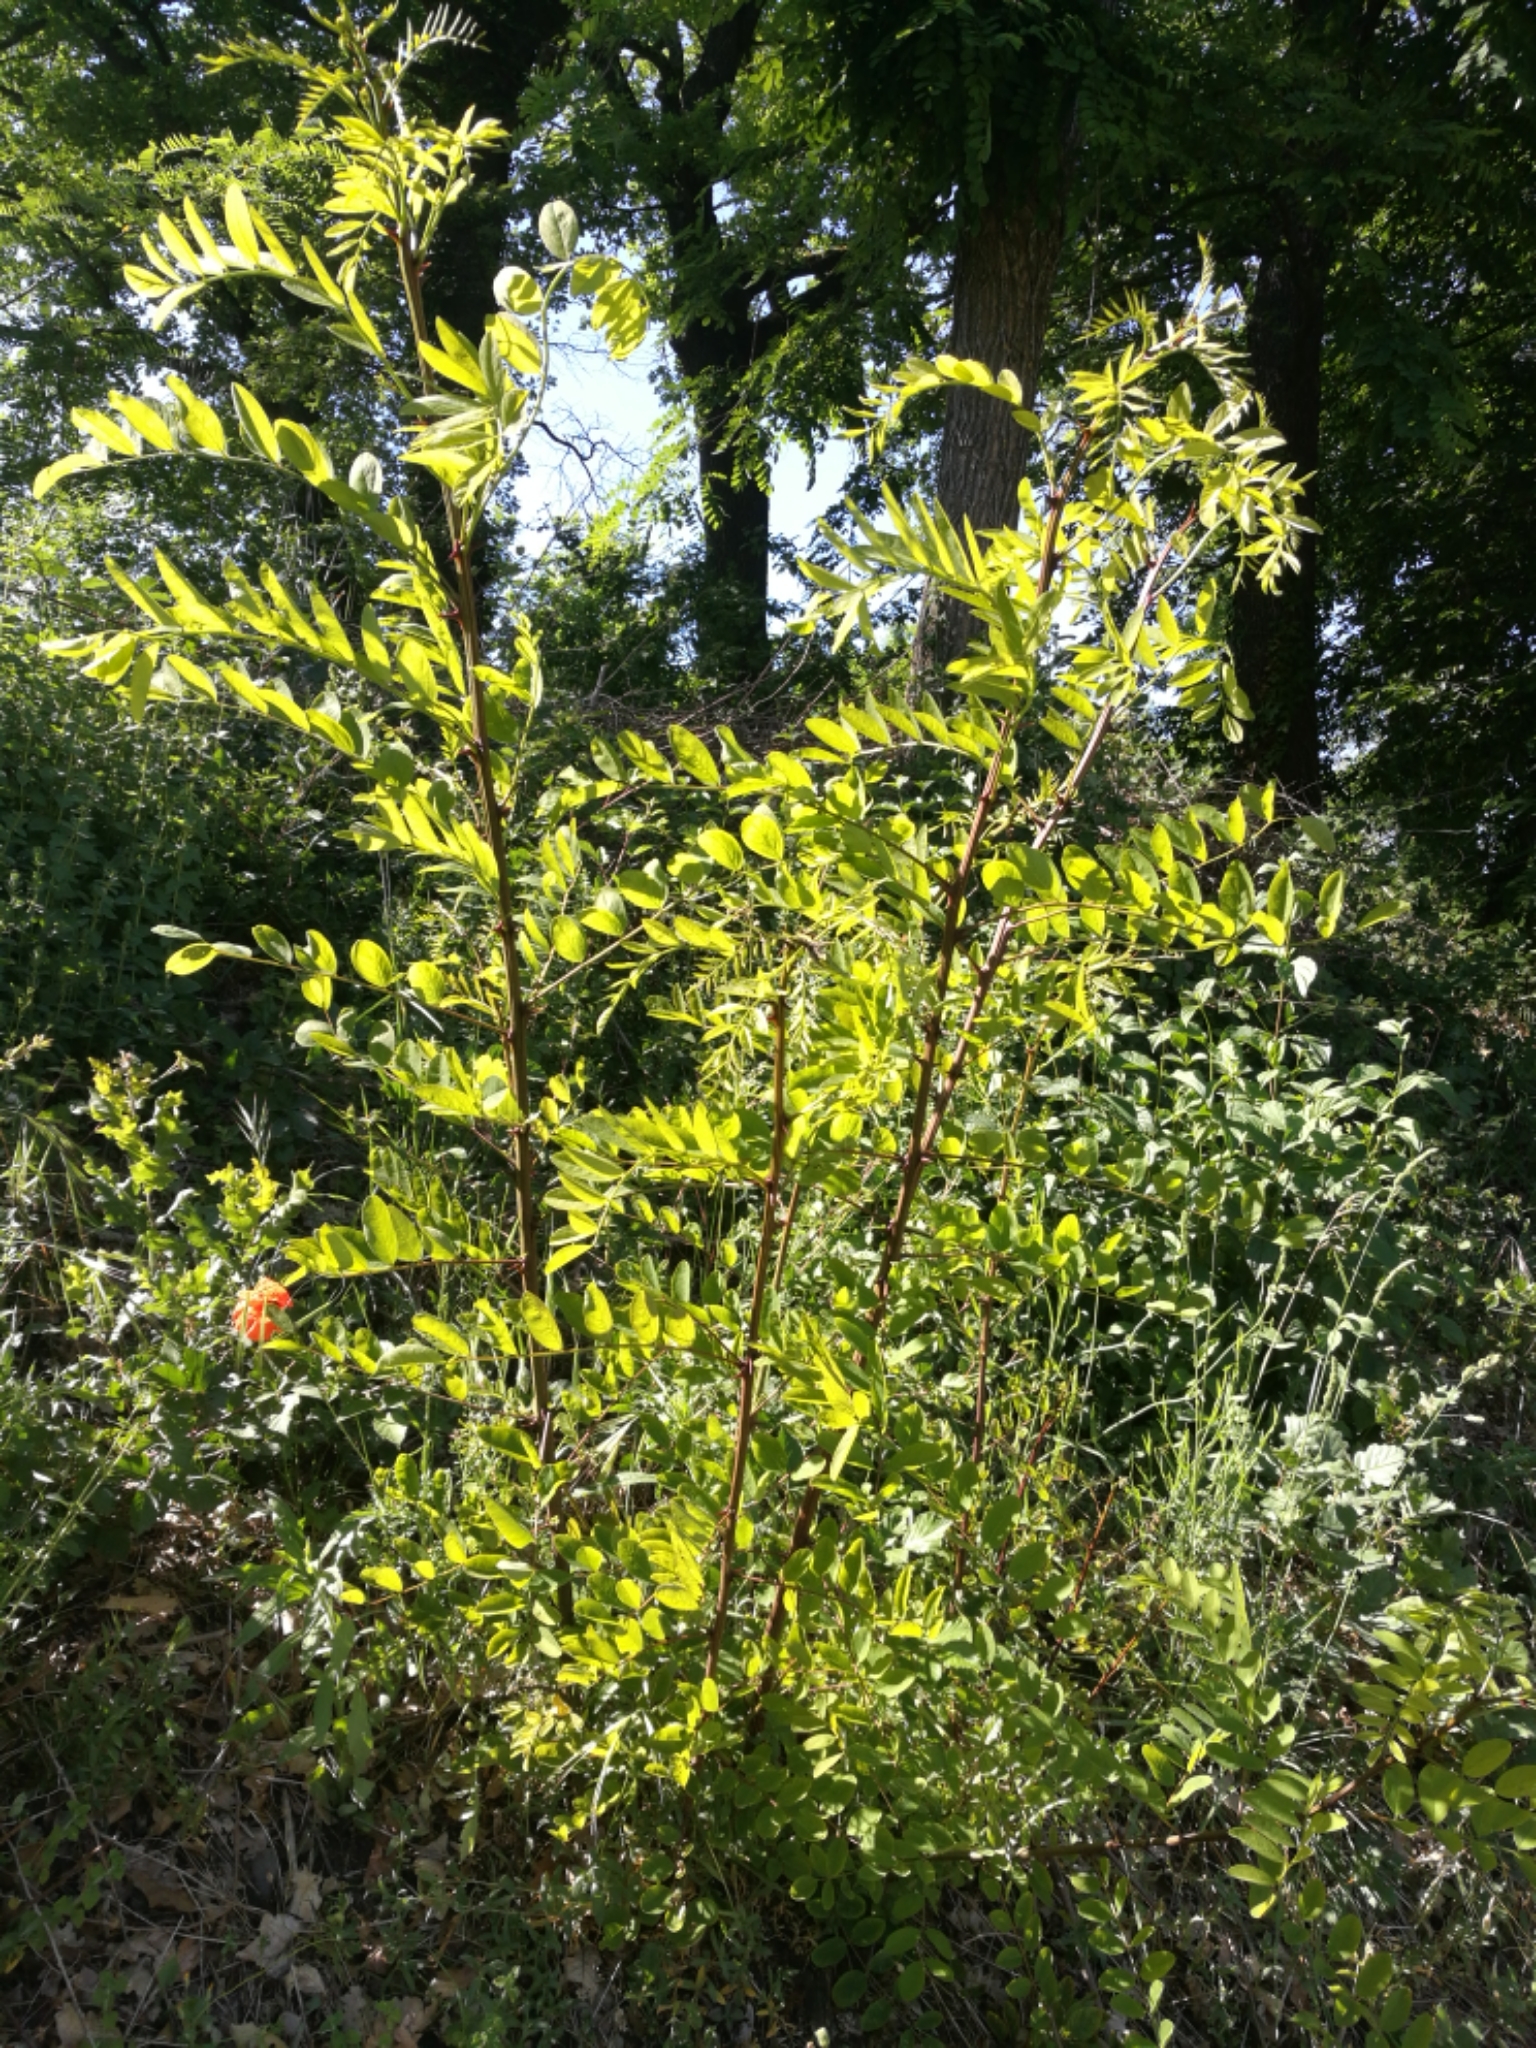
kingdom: Plantae
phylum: Tracheophyta
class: Magnoliopsida
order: Fabales
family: Fabaceae
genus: Robinia
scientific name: Robinia pseudoacacia
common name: Black locust
